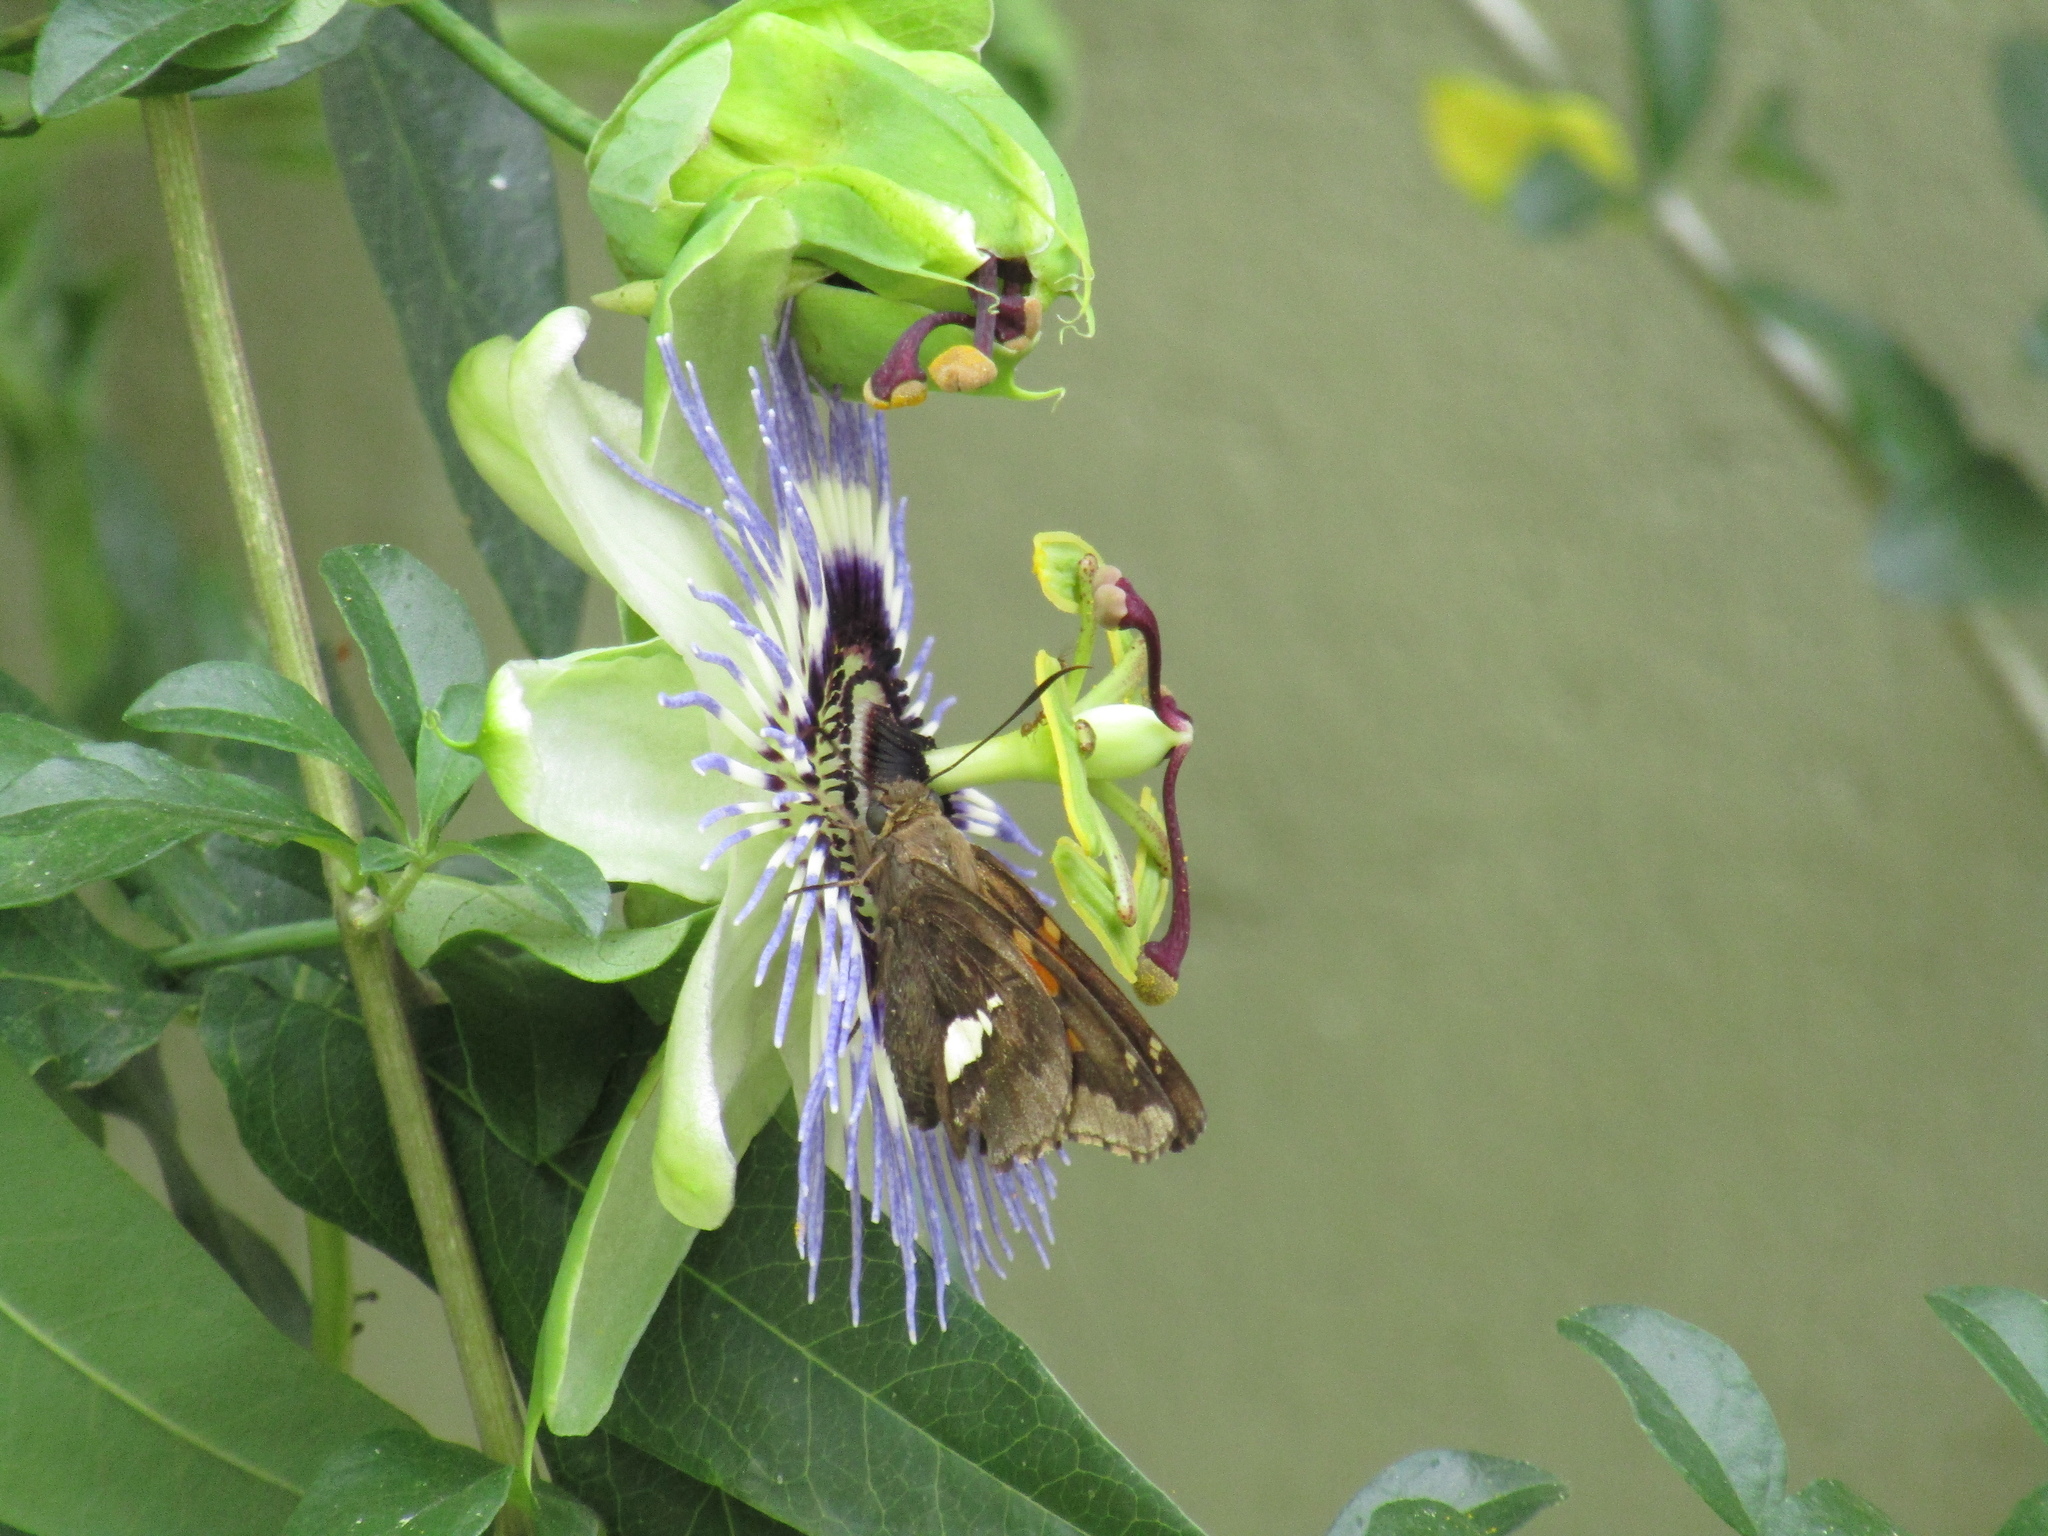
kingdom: Animalia
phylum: Arthropoda
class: Insecta
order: Lepidoptera
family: Hesperiidae
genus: Epargyreus
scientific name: Epargyreus tmolis
